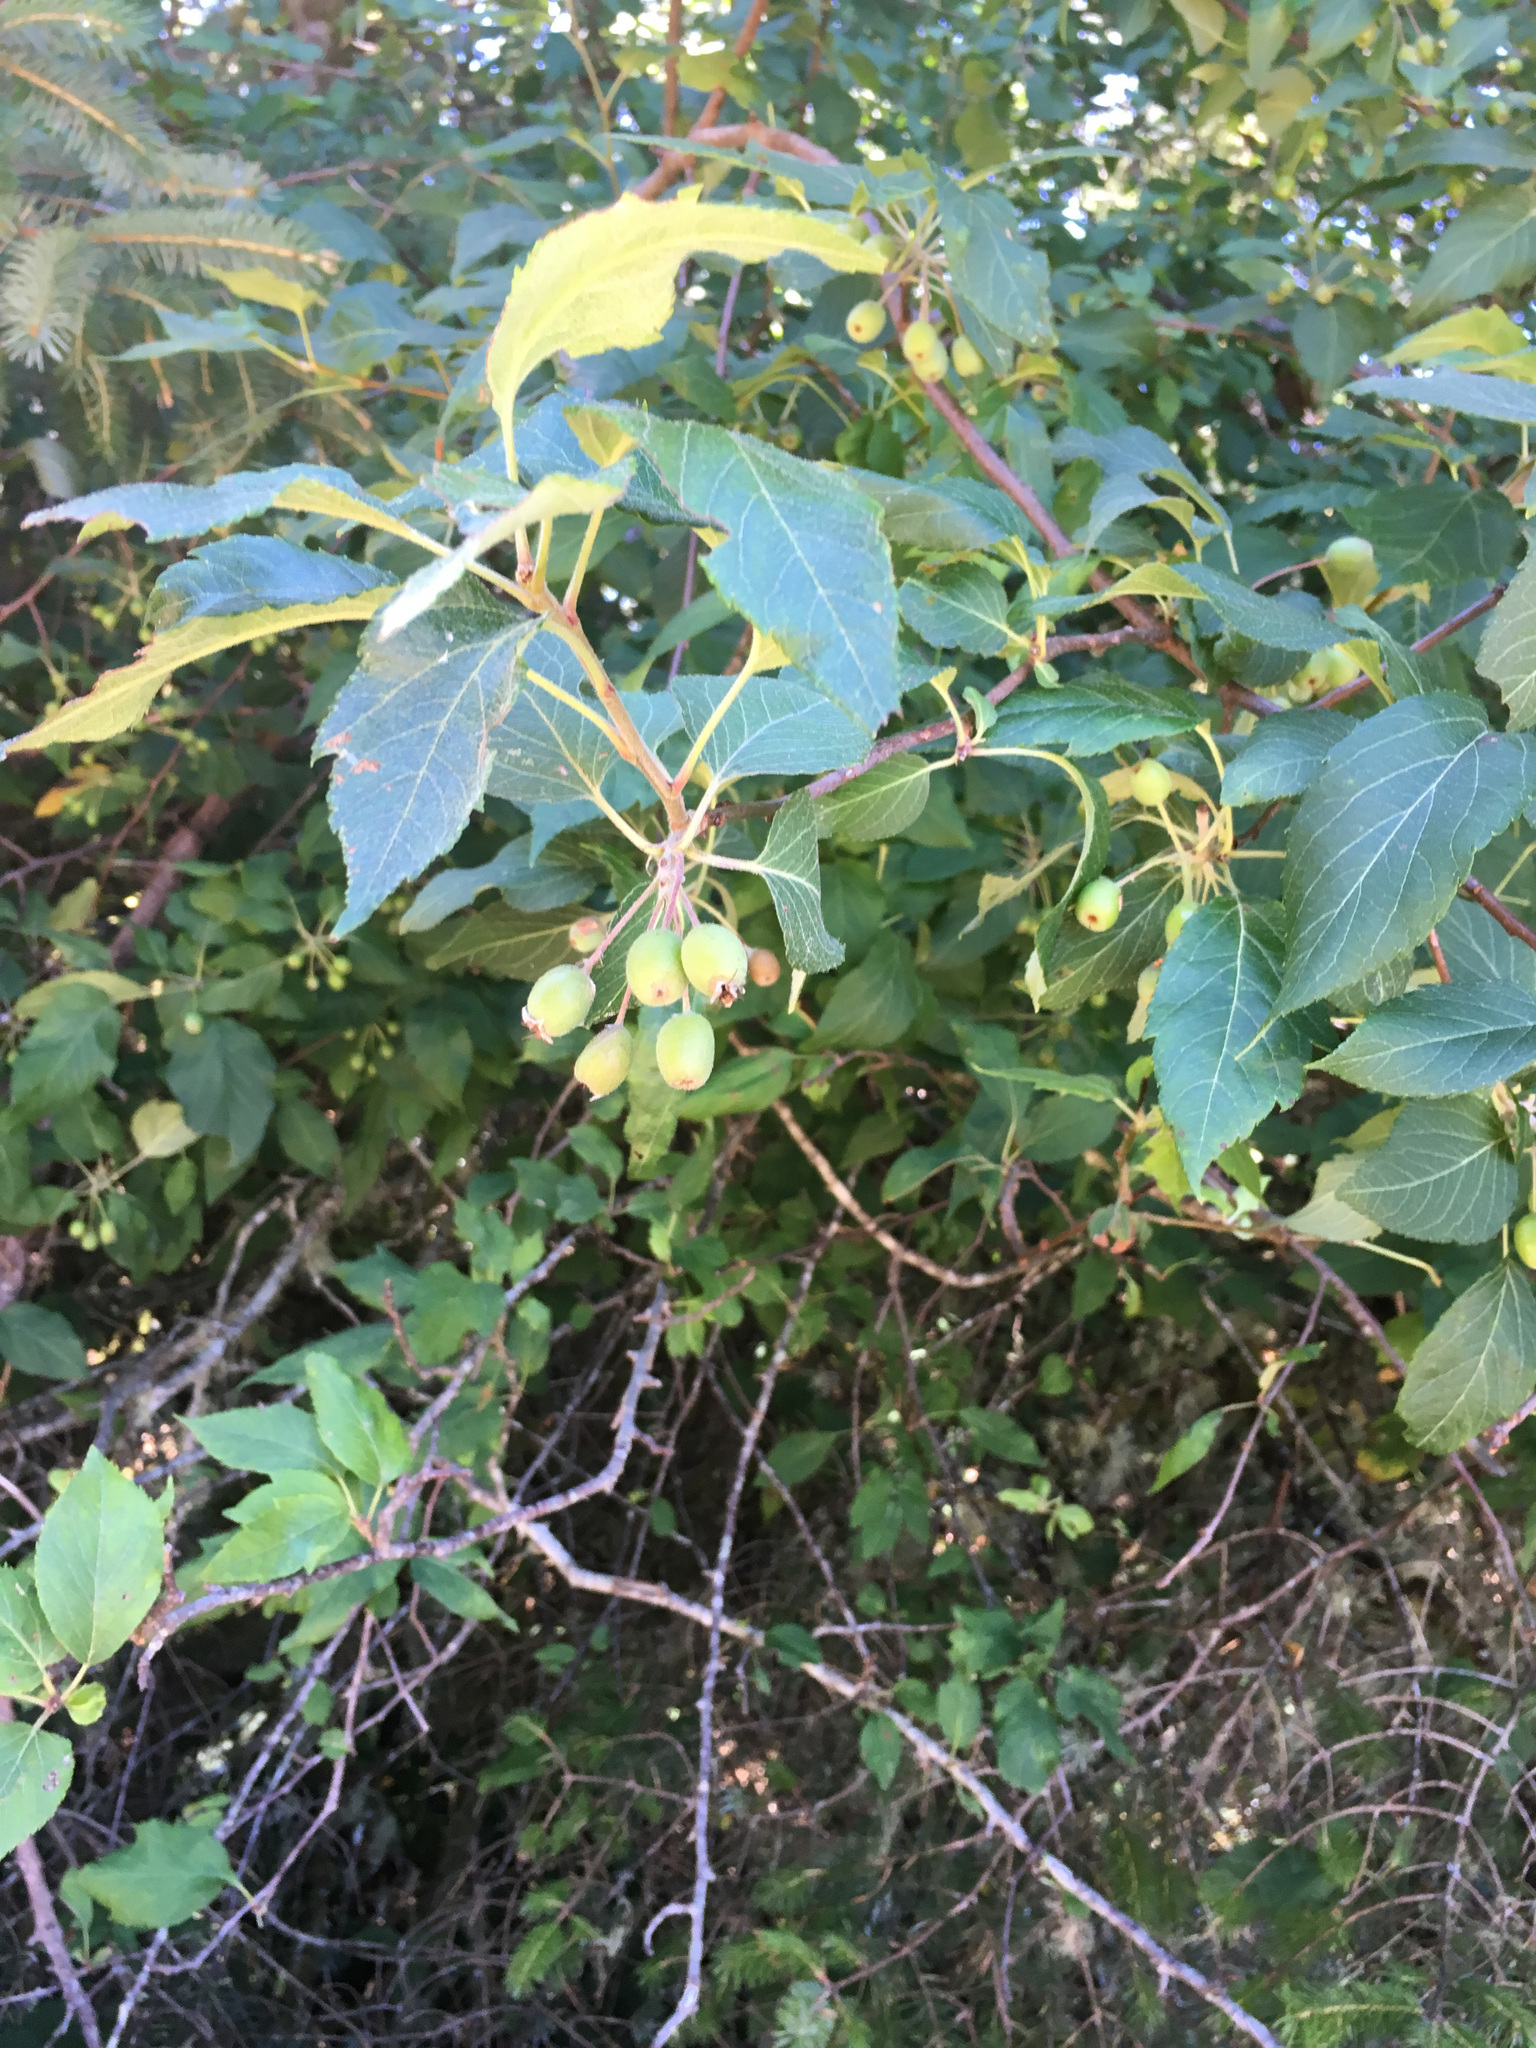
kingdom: Plantae
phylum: Tracheophyta
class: Magnoliopsida
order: Rosales
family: Rosaceae
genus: Malus
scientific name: Malus fusca
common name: Oregon crab apple
